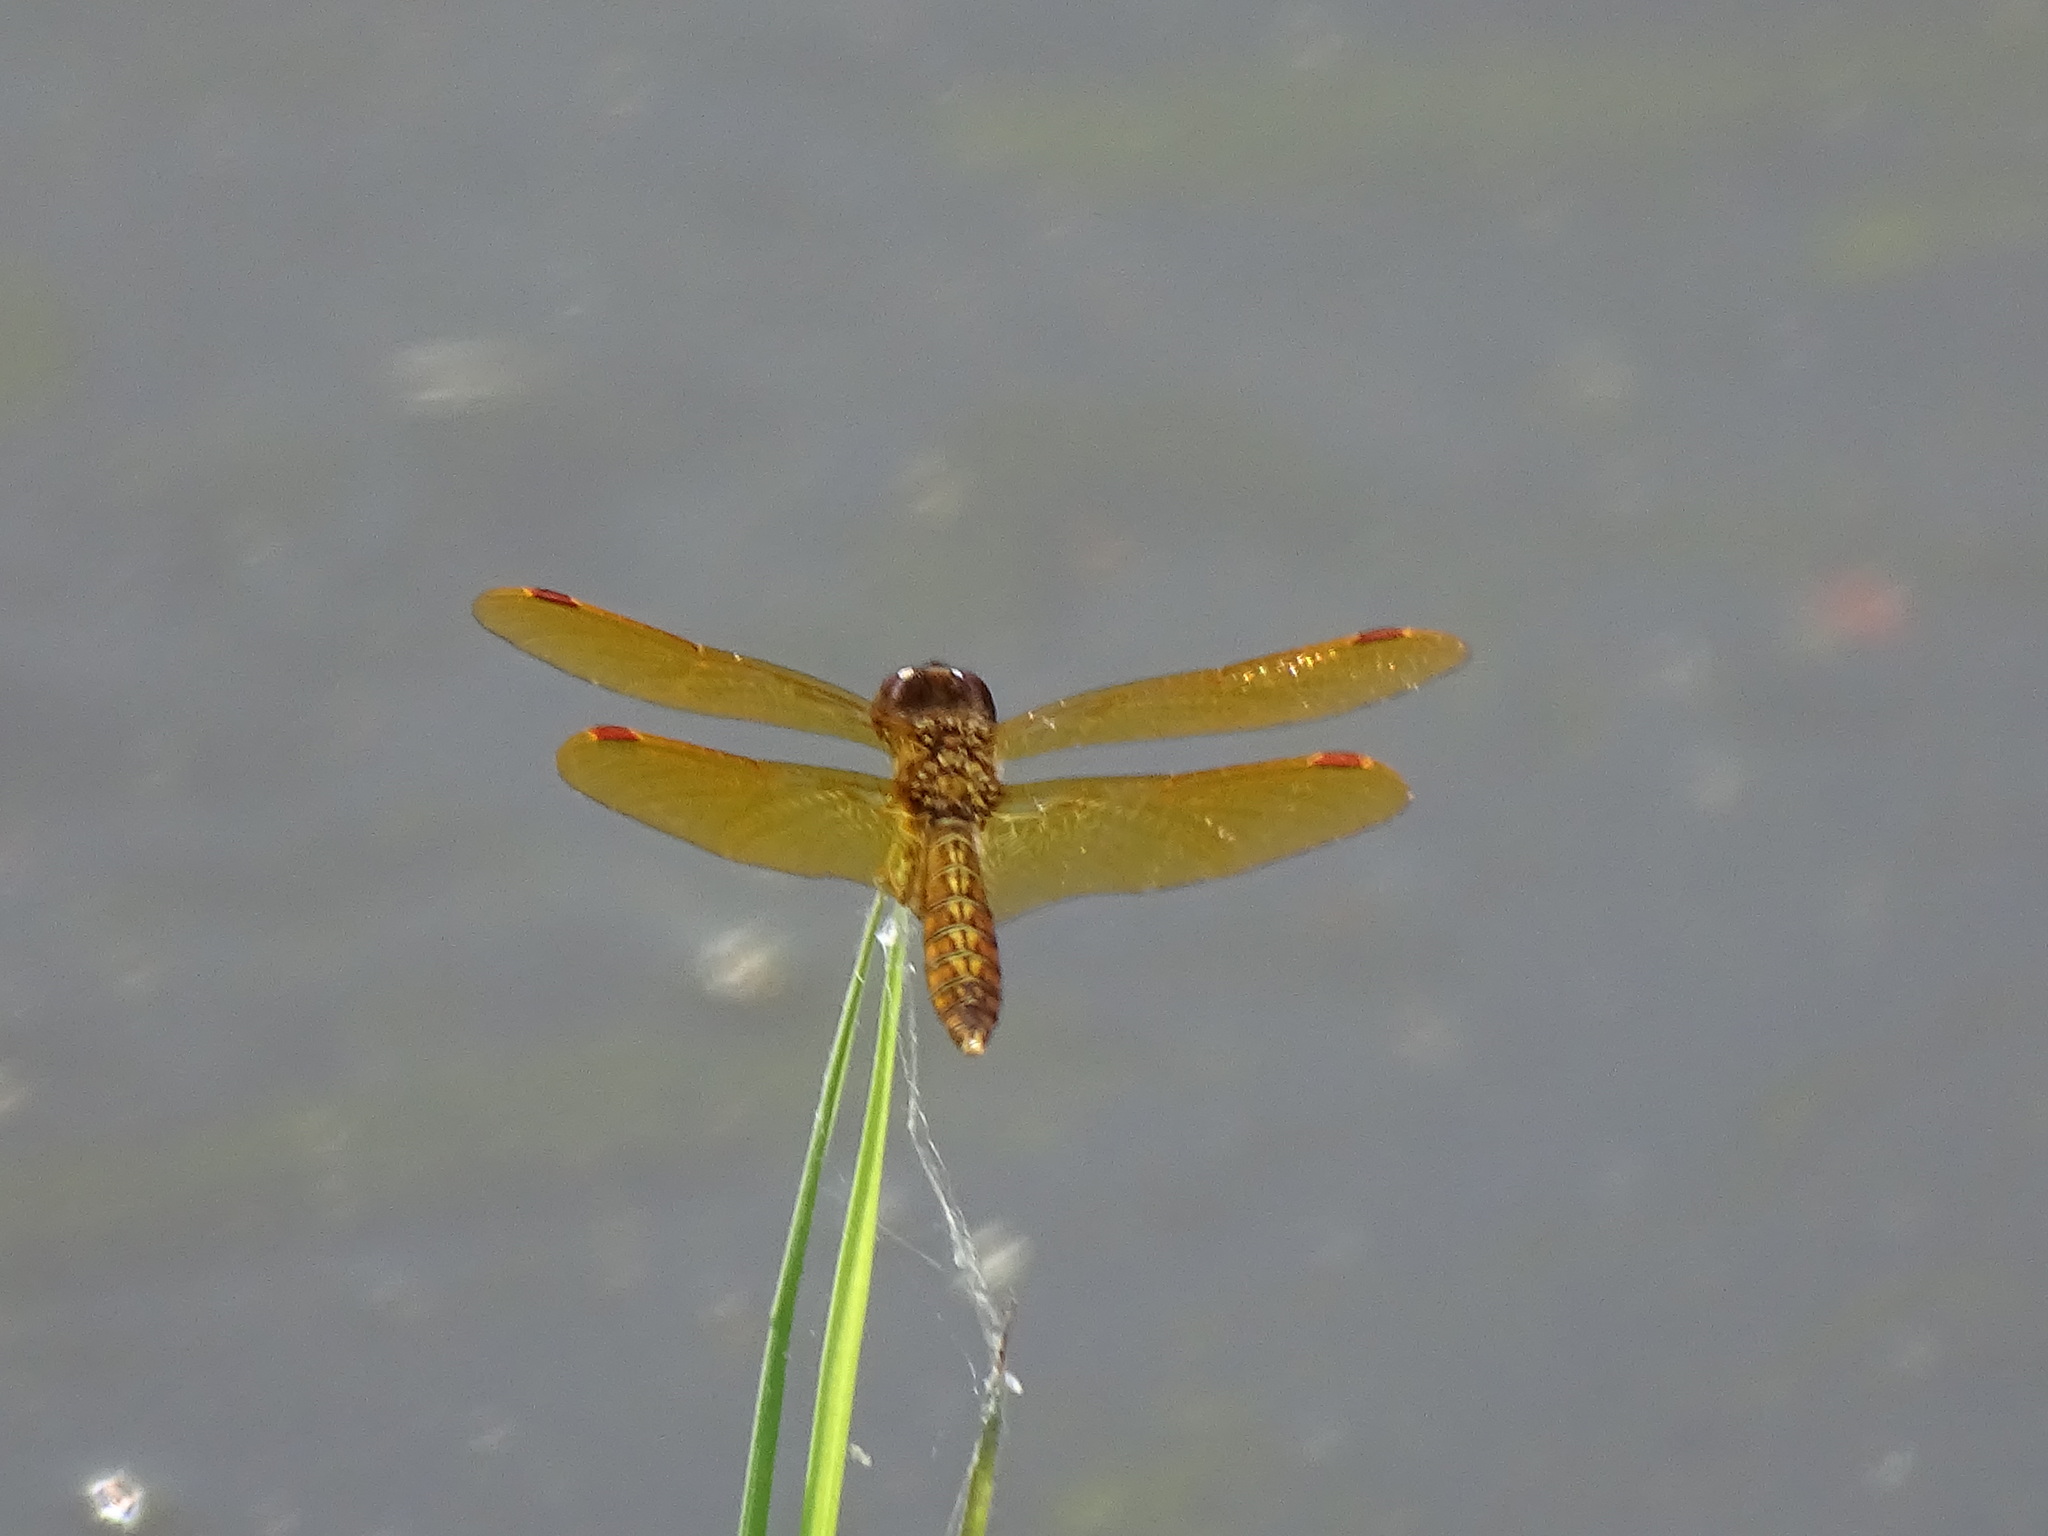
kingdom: Animalia
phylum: Arthropoda
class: Insecta
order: Odonata
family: Libellulidae
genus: Perithemis
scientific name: Perithemis tenera
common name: Eastern amberwing
